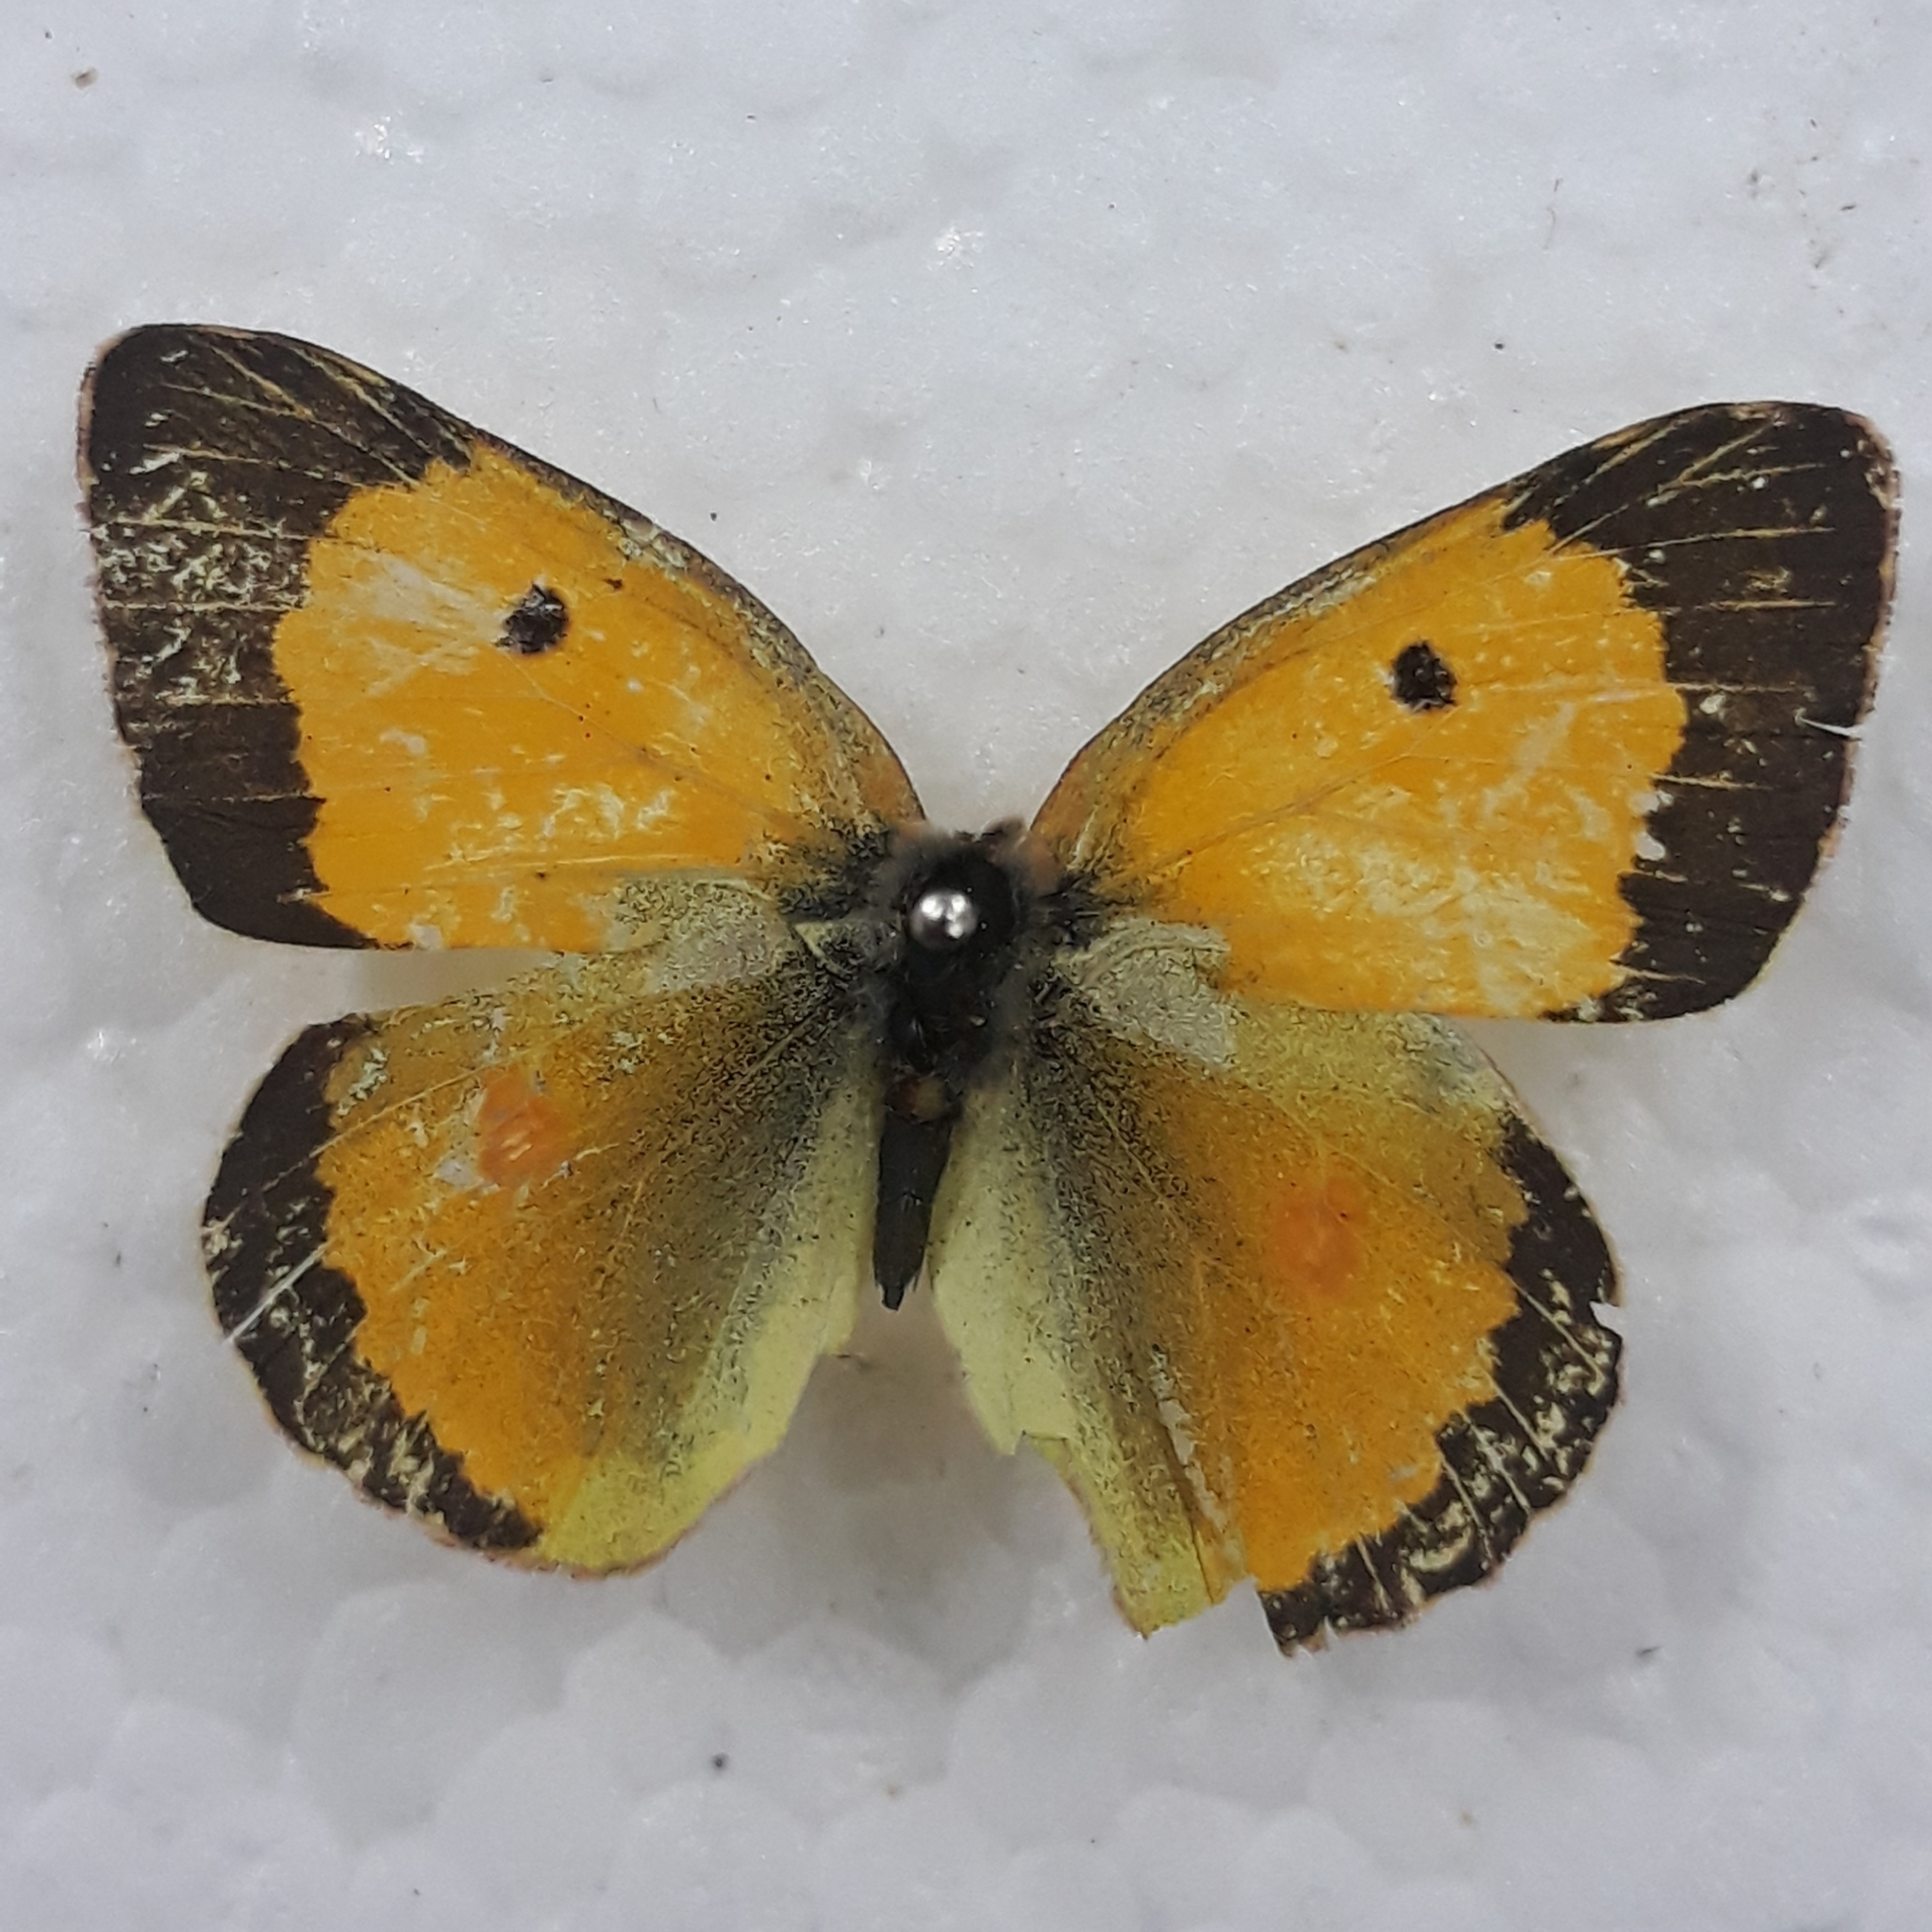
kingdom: Animalia
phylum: Arthropoda
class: Insecta
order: Lepidoptera
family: Pieridae
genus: Colias
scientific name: Colias croceus
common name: Clouded yellow
